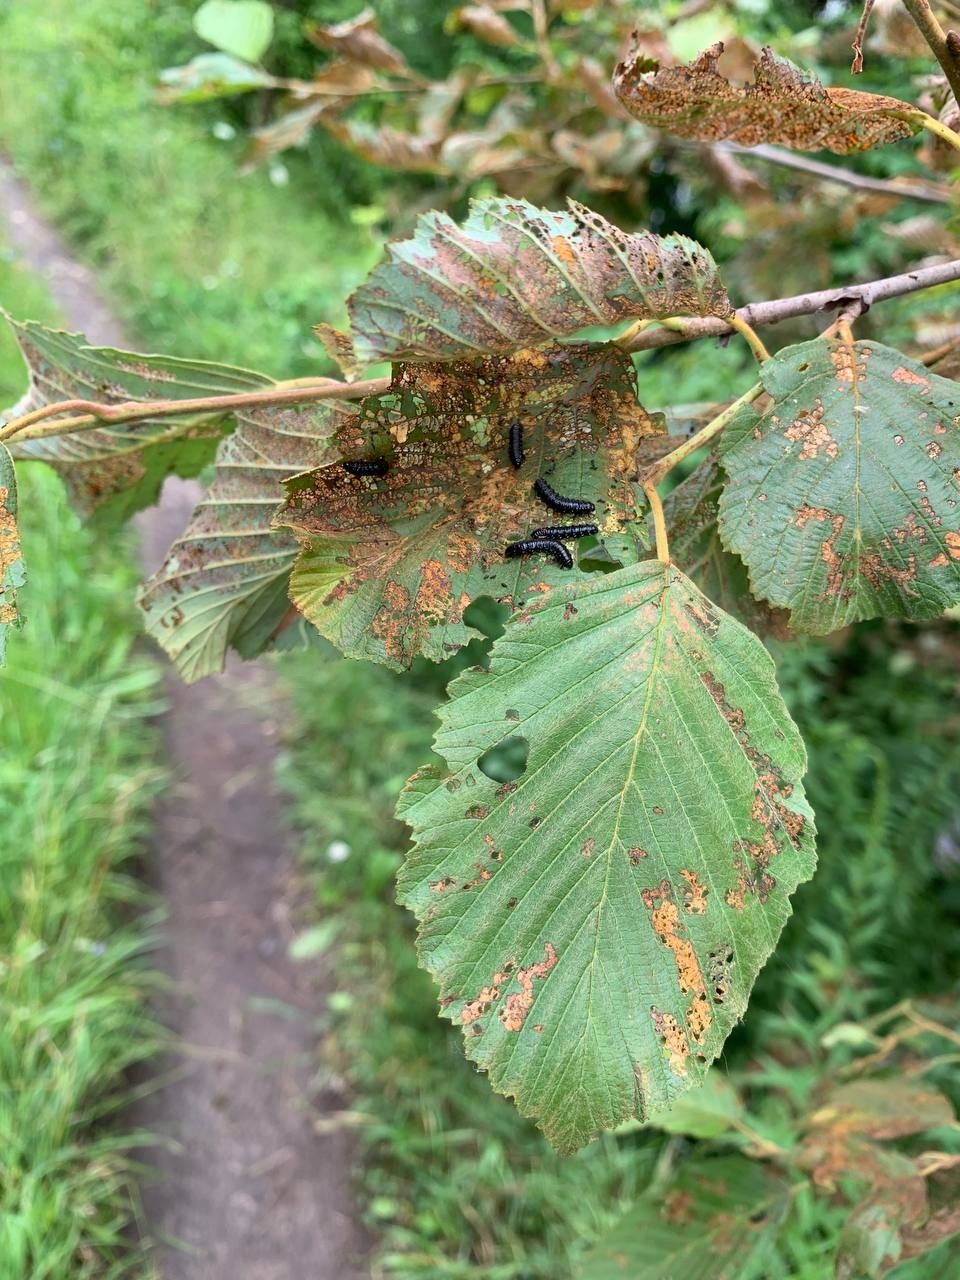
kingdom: Animalia
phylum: Arthropoda
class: Insecta
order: Coleoptera
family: Chrysomelidae
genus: Agelastica
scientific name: Agelastica alni
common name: Alder leaf beetle
